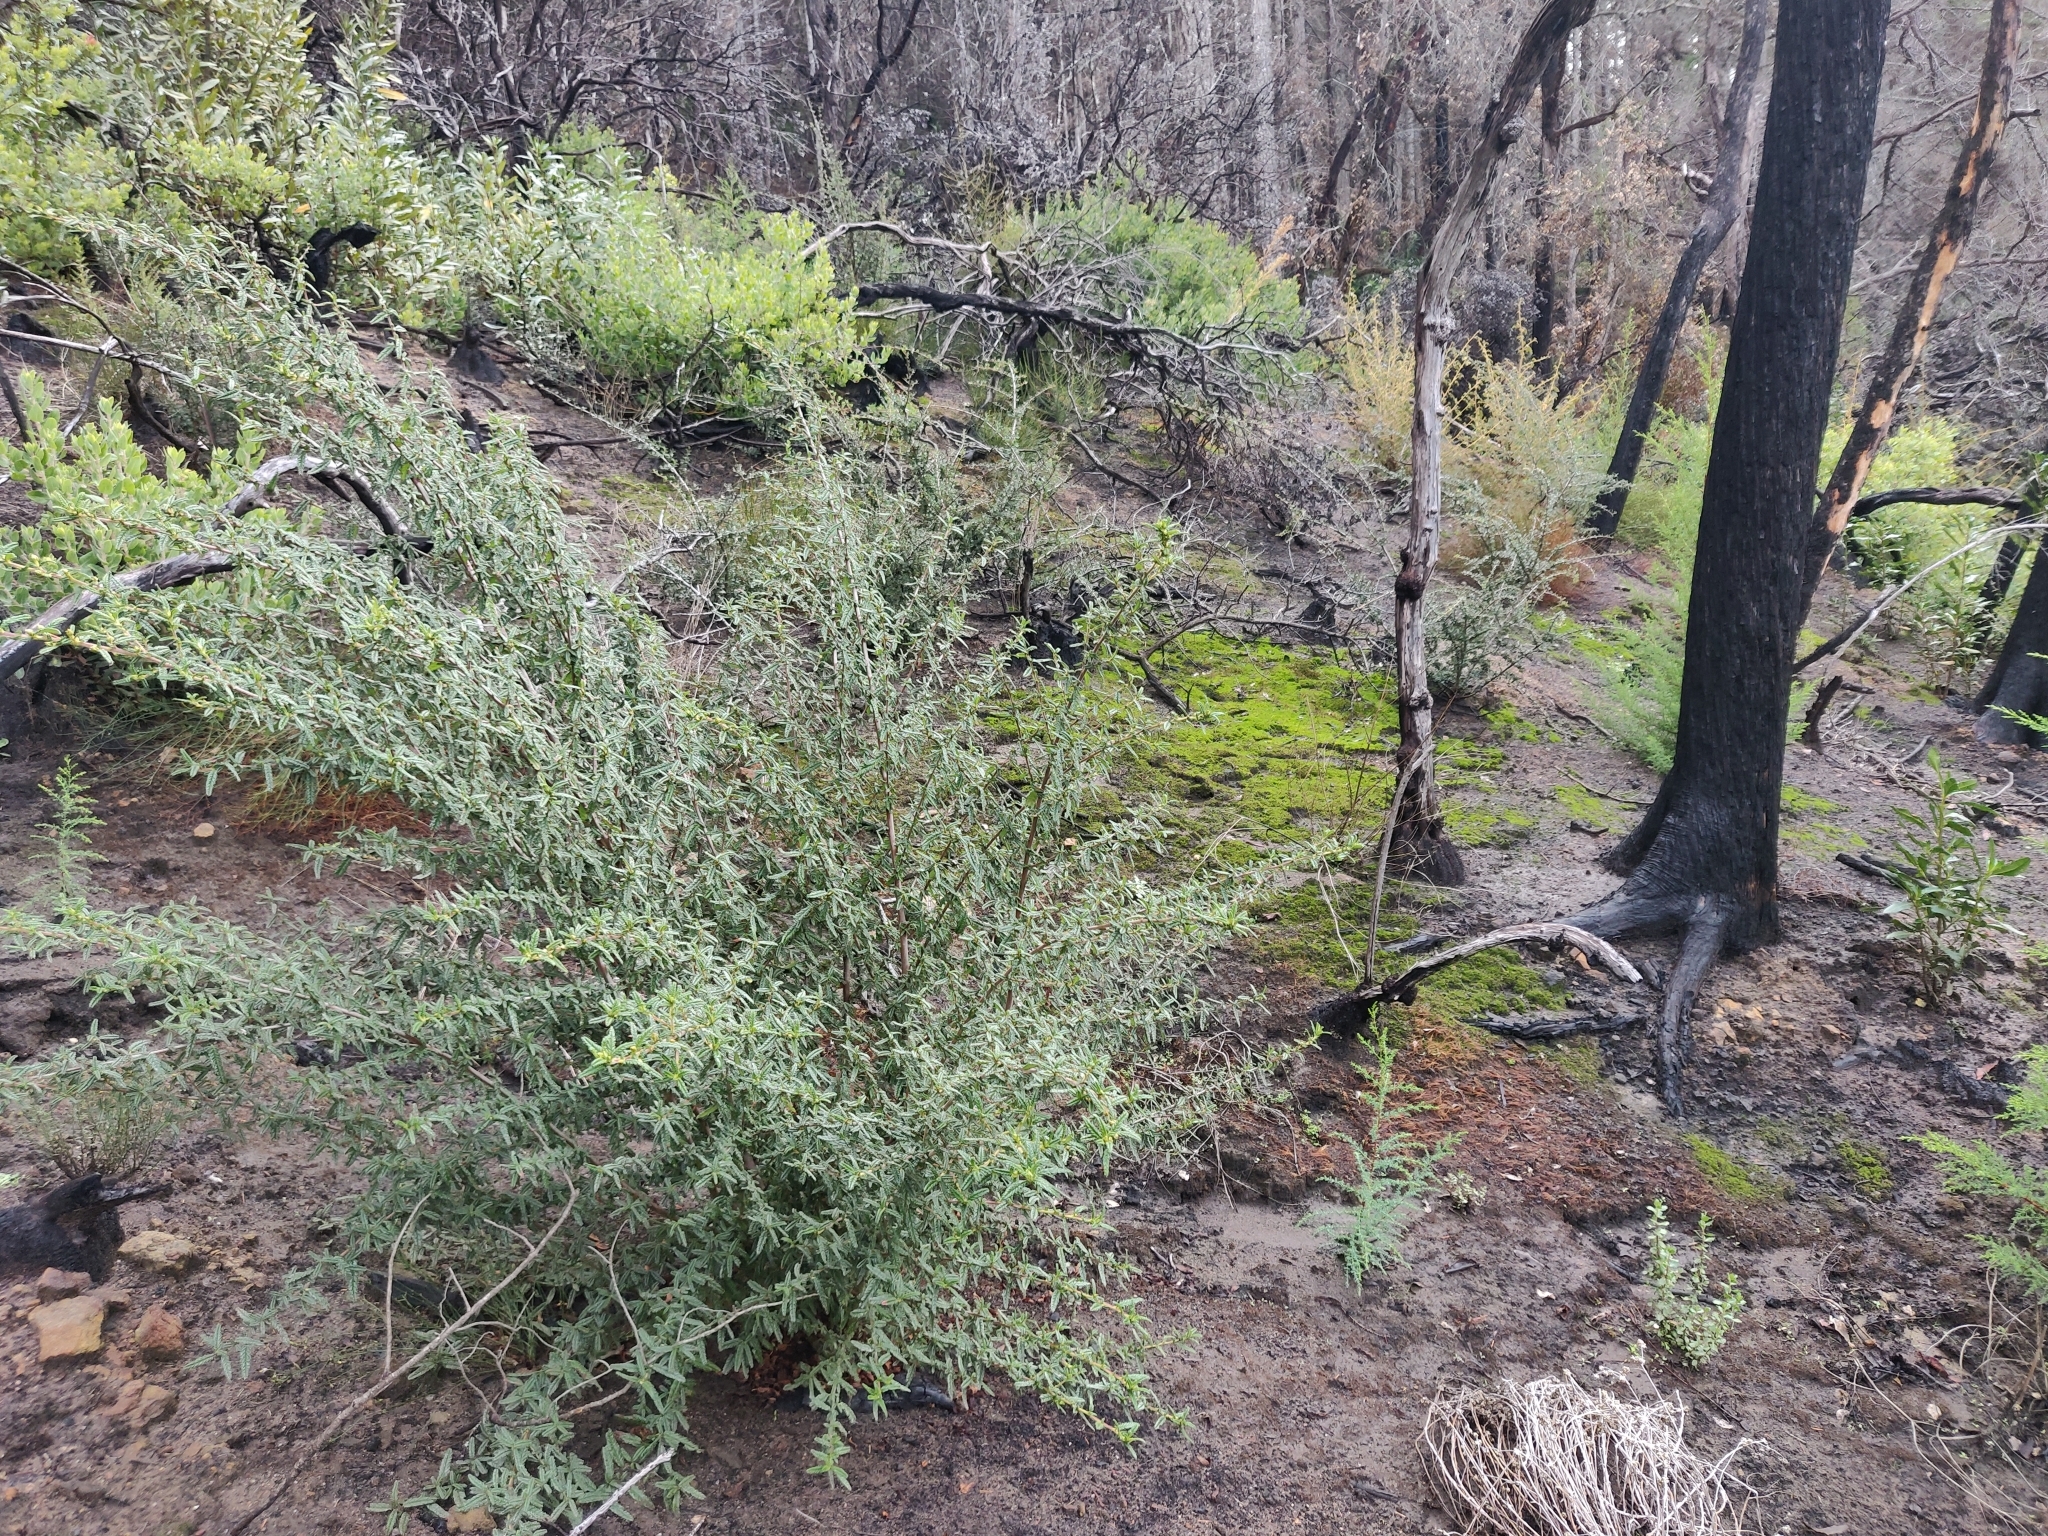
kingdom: Plantae
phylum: Tracheophyta
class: Magnoliopsida
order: Rosales
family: Rhamnaceae
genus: Ceanothus
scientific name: Ceanothus papillosus
